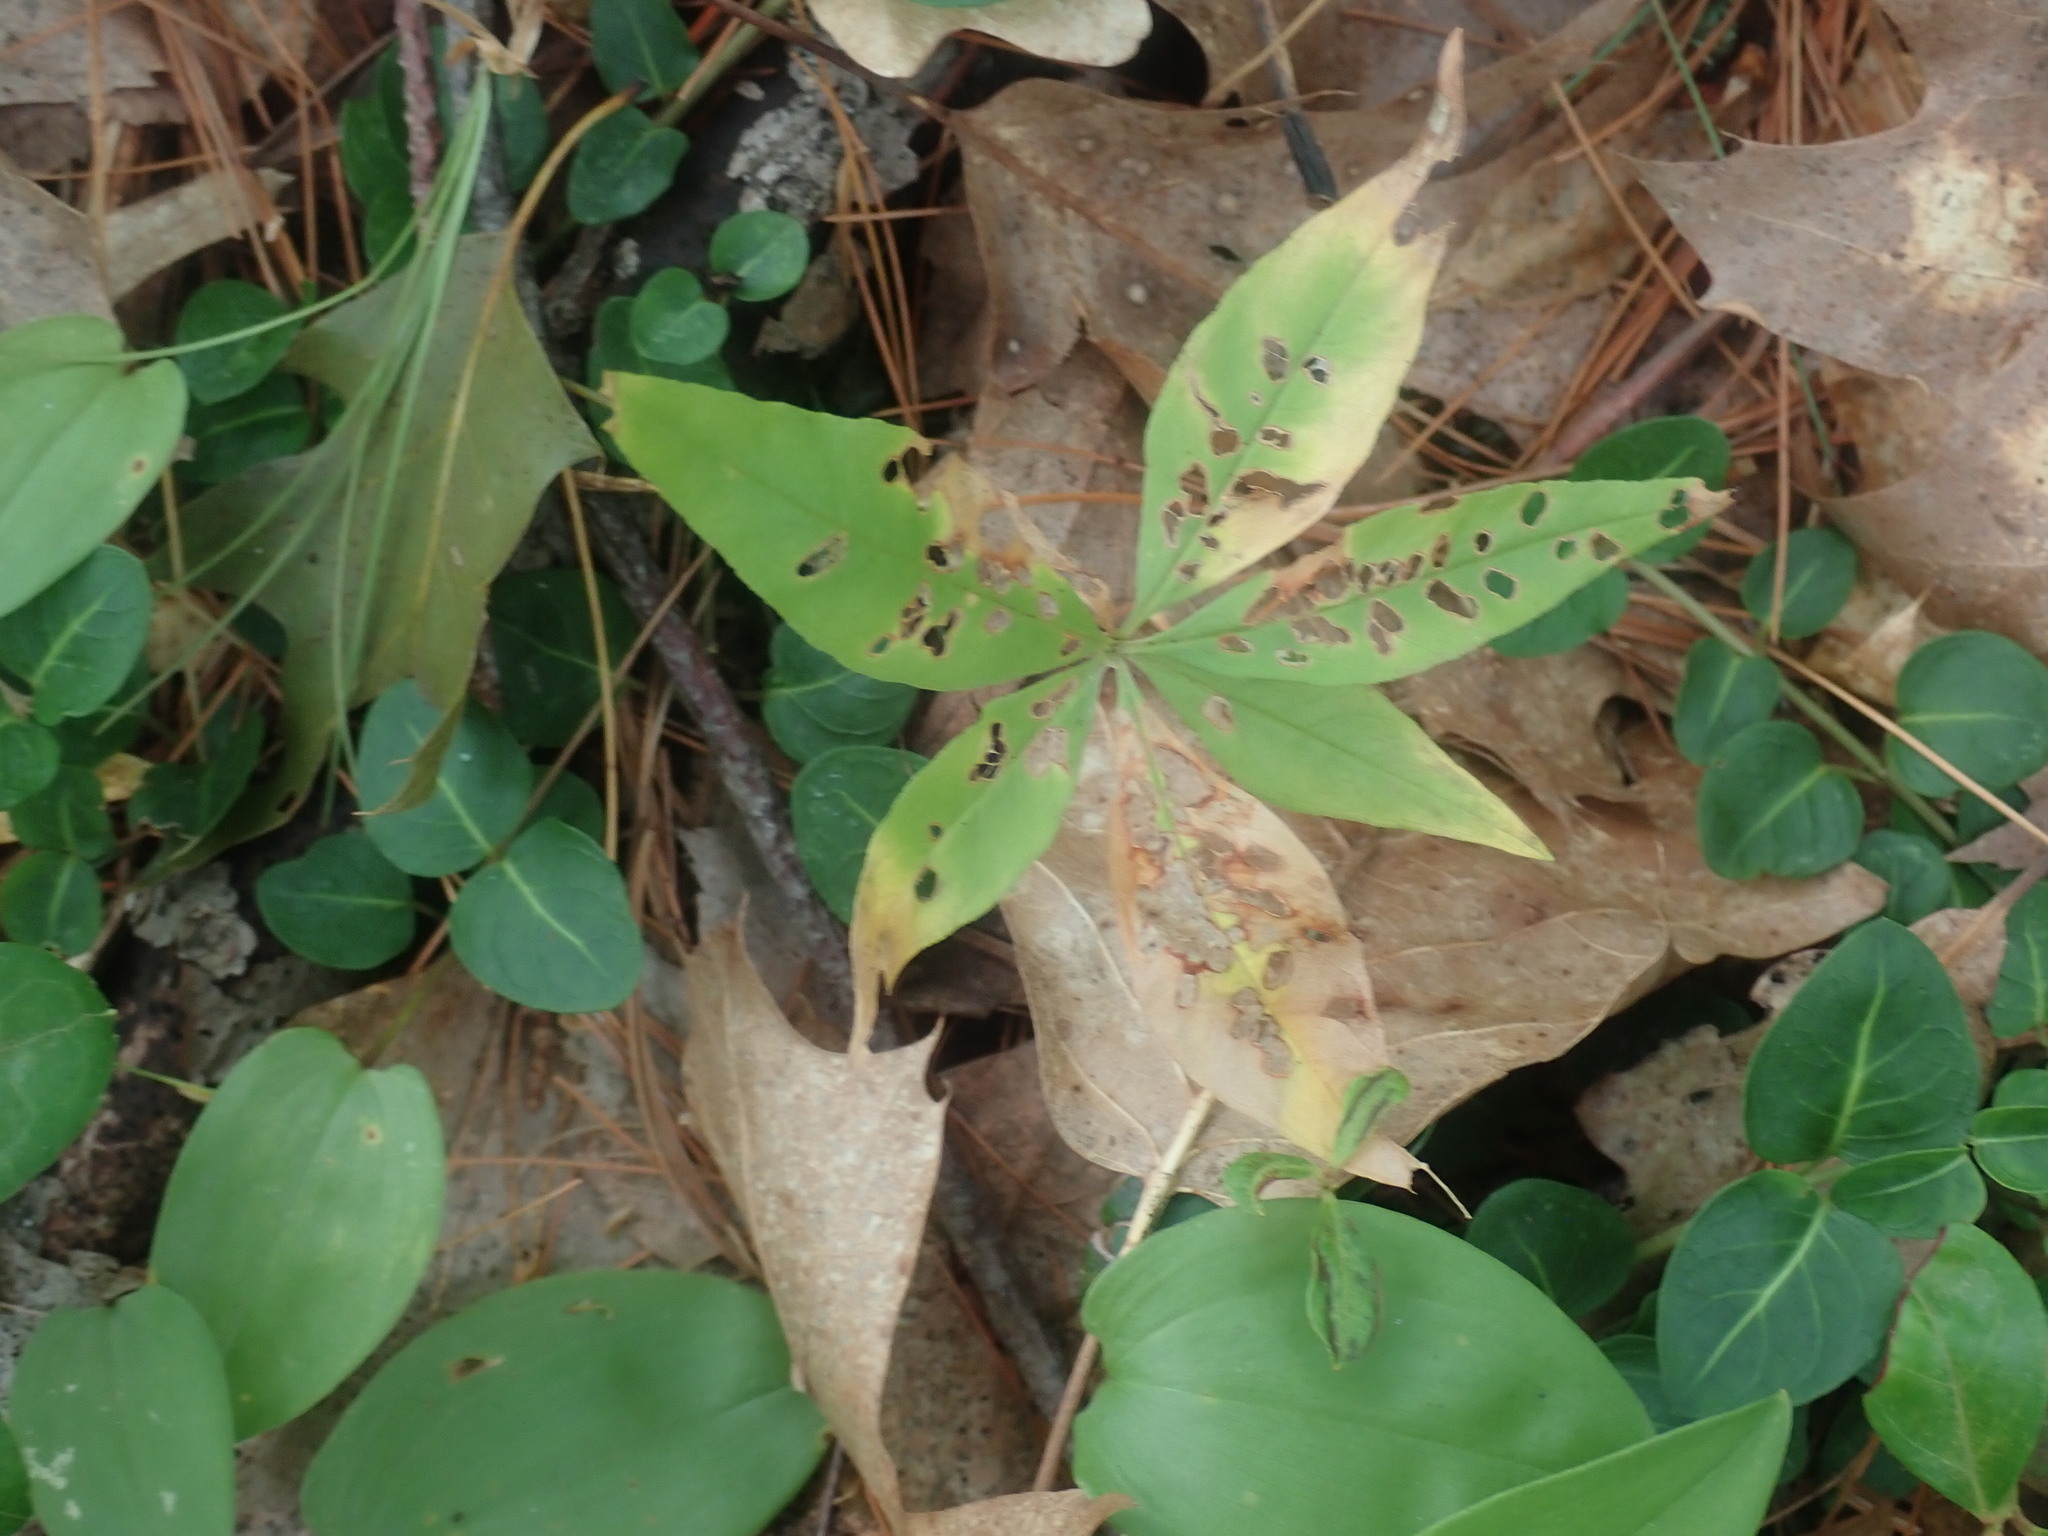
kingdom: Plantae
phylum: Tracheophyta
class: Magnoliopsida
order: Ericales
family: Primulaceae
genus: Lysimachia
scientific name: Lysimachia borealis
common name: American starflower
